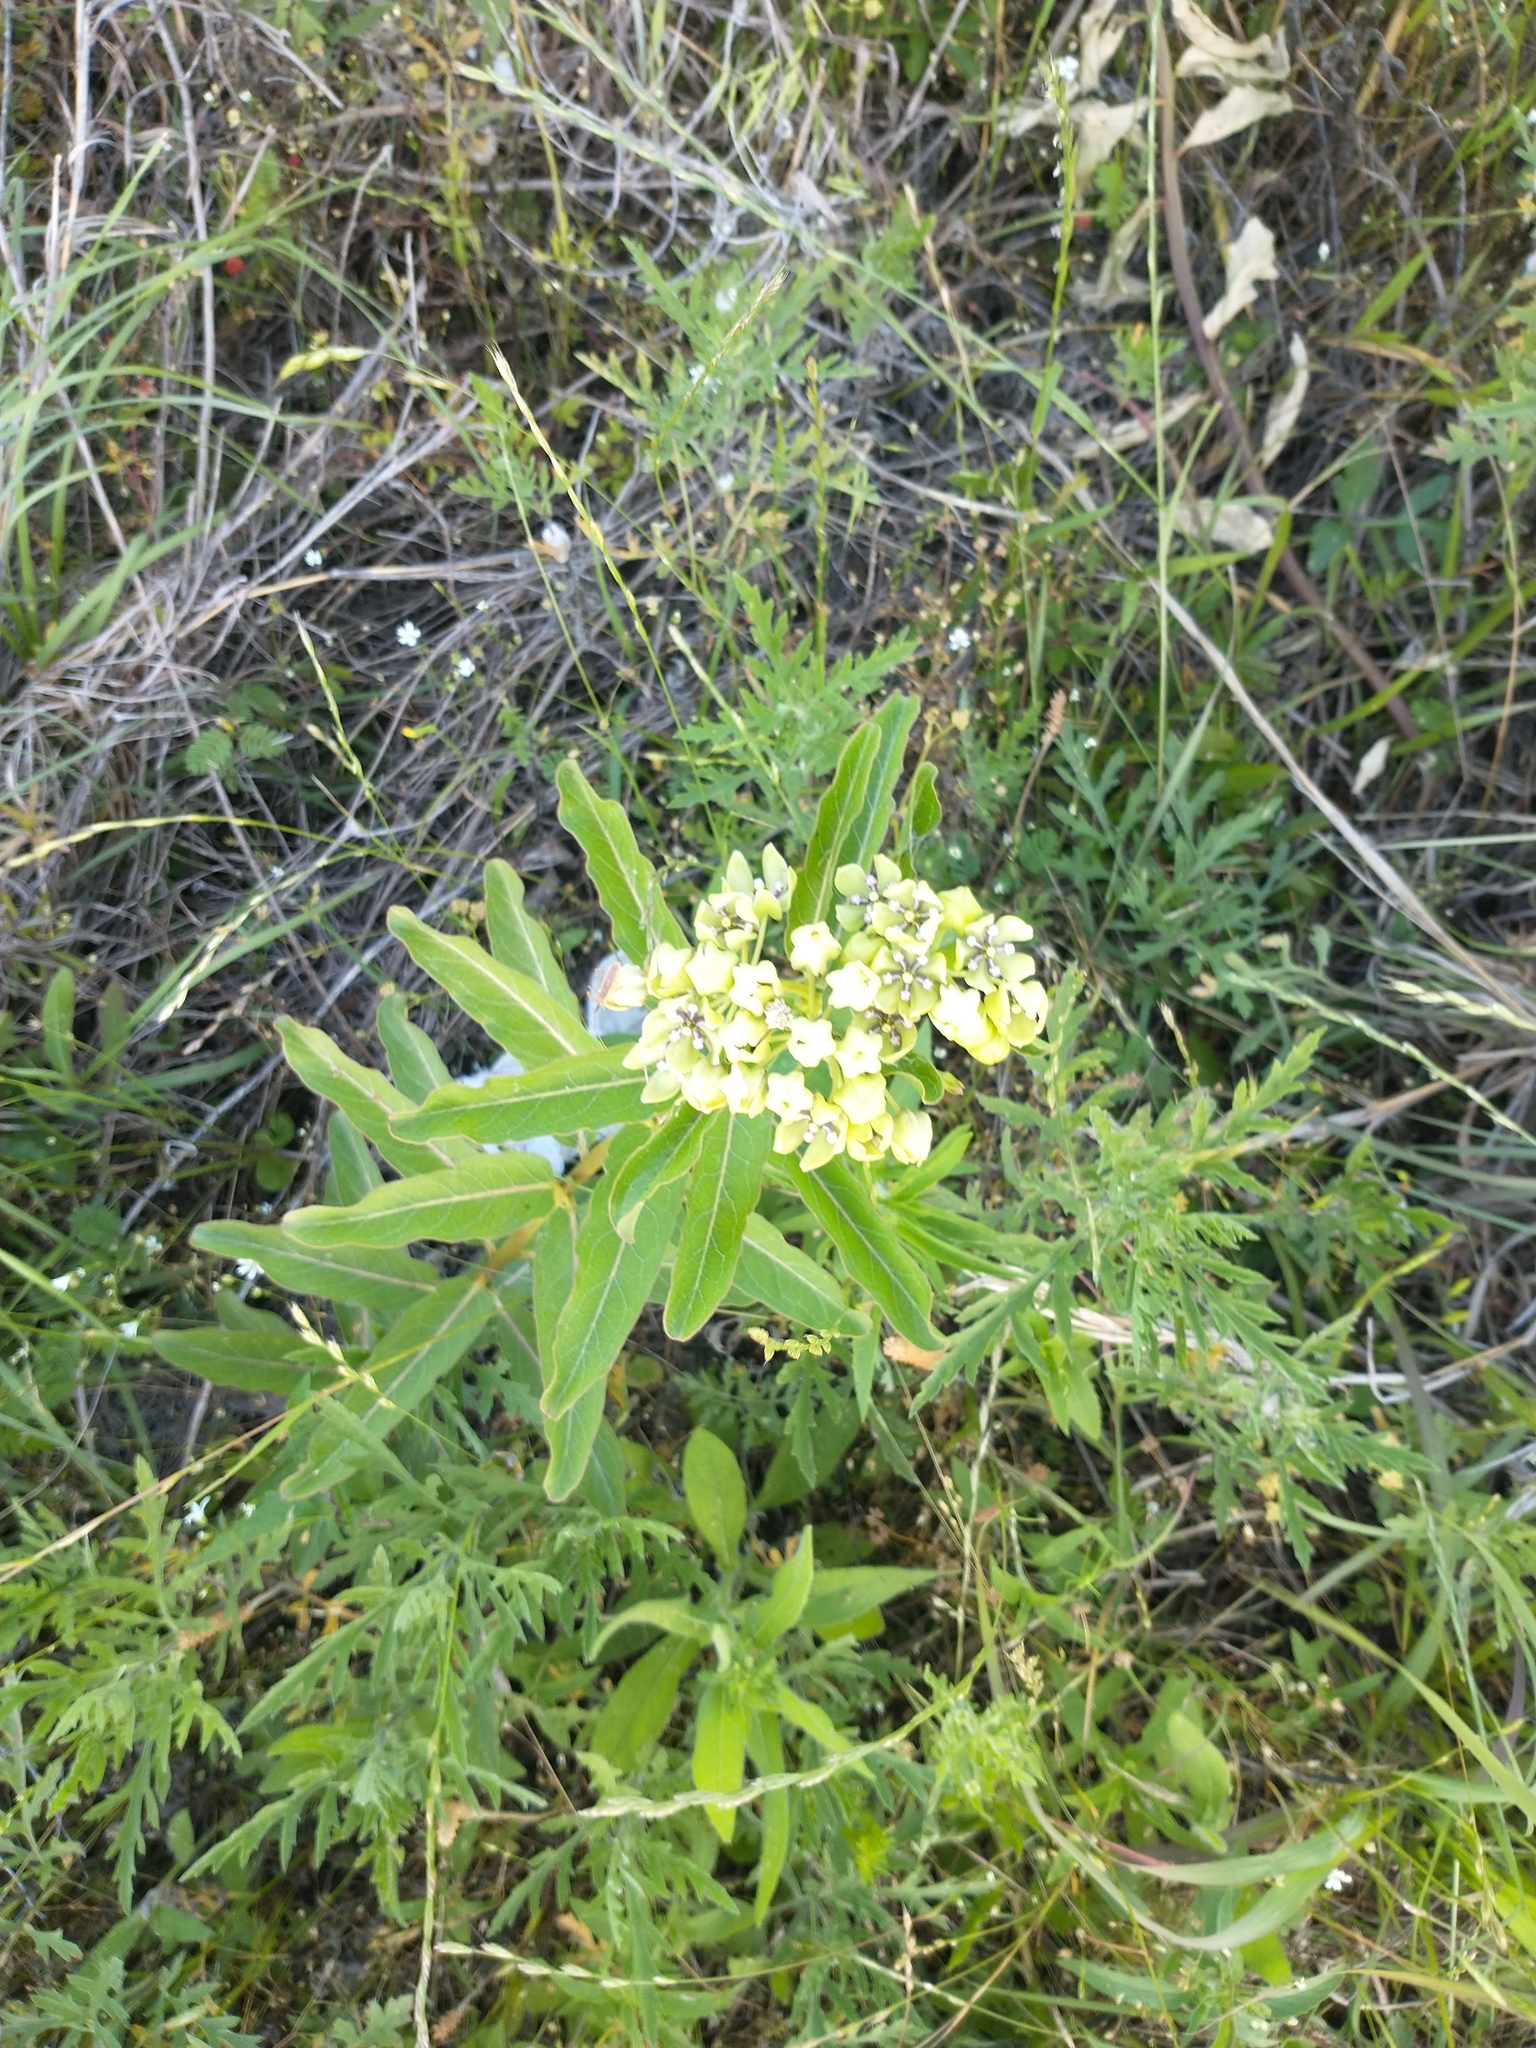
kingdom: Plantae
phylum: Tracheophyta
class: Magnoliopsida
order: Gentianales
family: Apocynaceae
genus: Asclepias
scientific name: Asclepias viridis
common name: Antelope-horns
